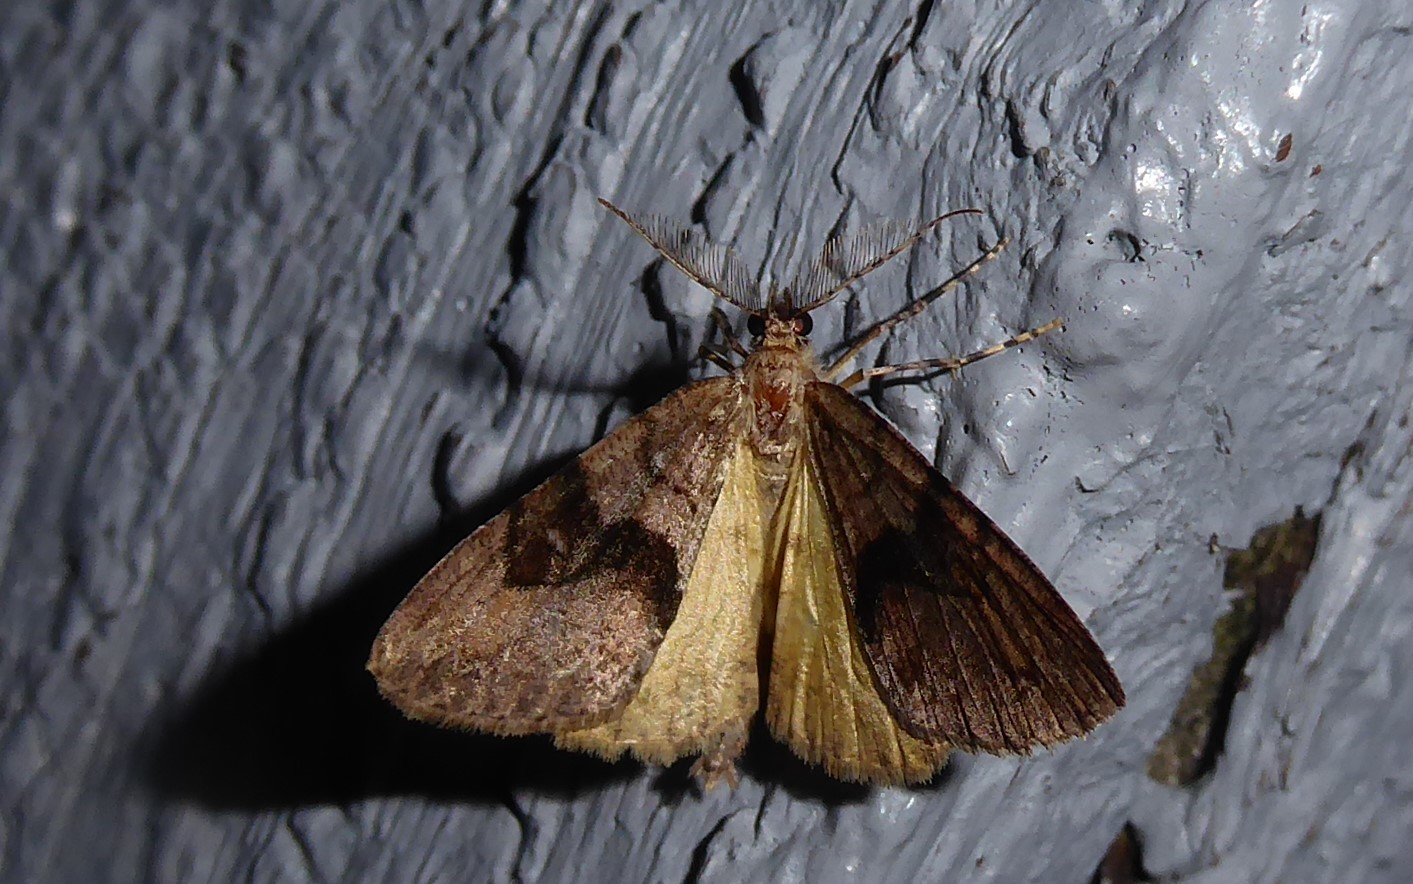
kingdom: Animalia
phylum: Arthropoda
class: Insecta
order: Lepidoptera
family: Geometridae
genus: Pseudocoremia
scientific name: Pseudocoremia suavis
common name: Common forest looper
